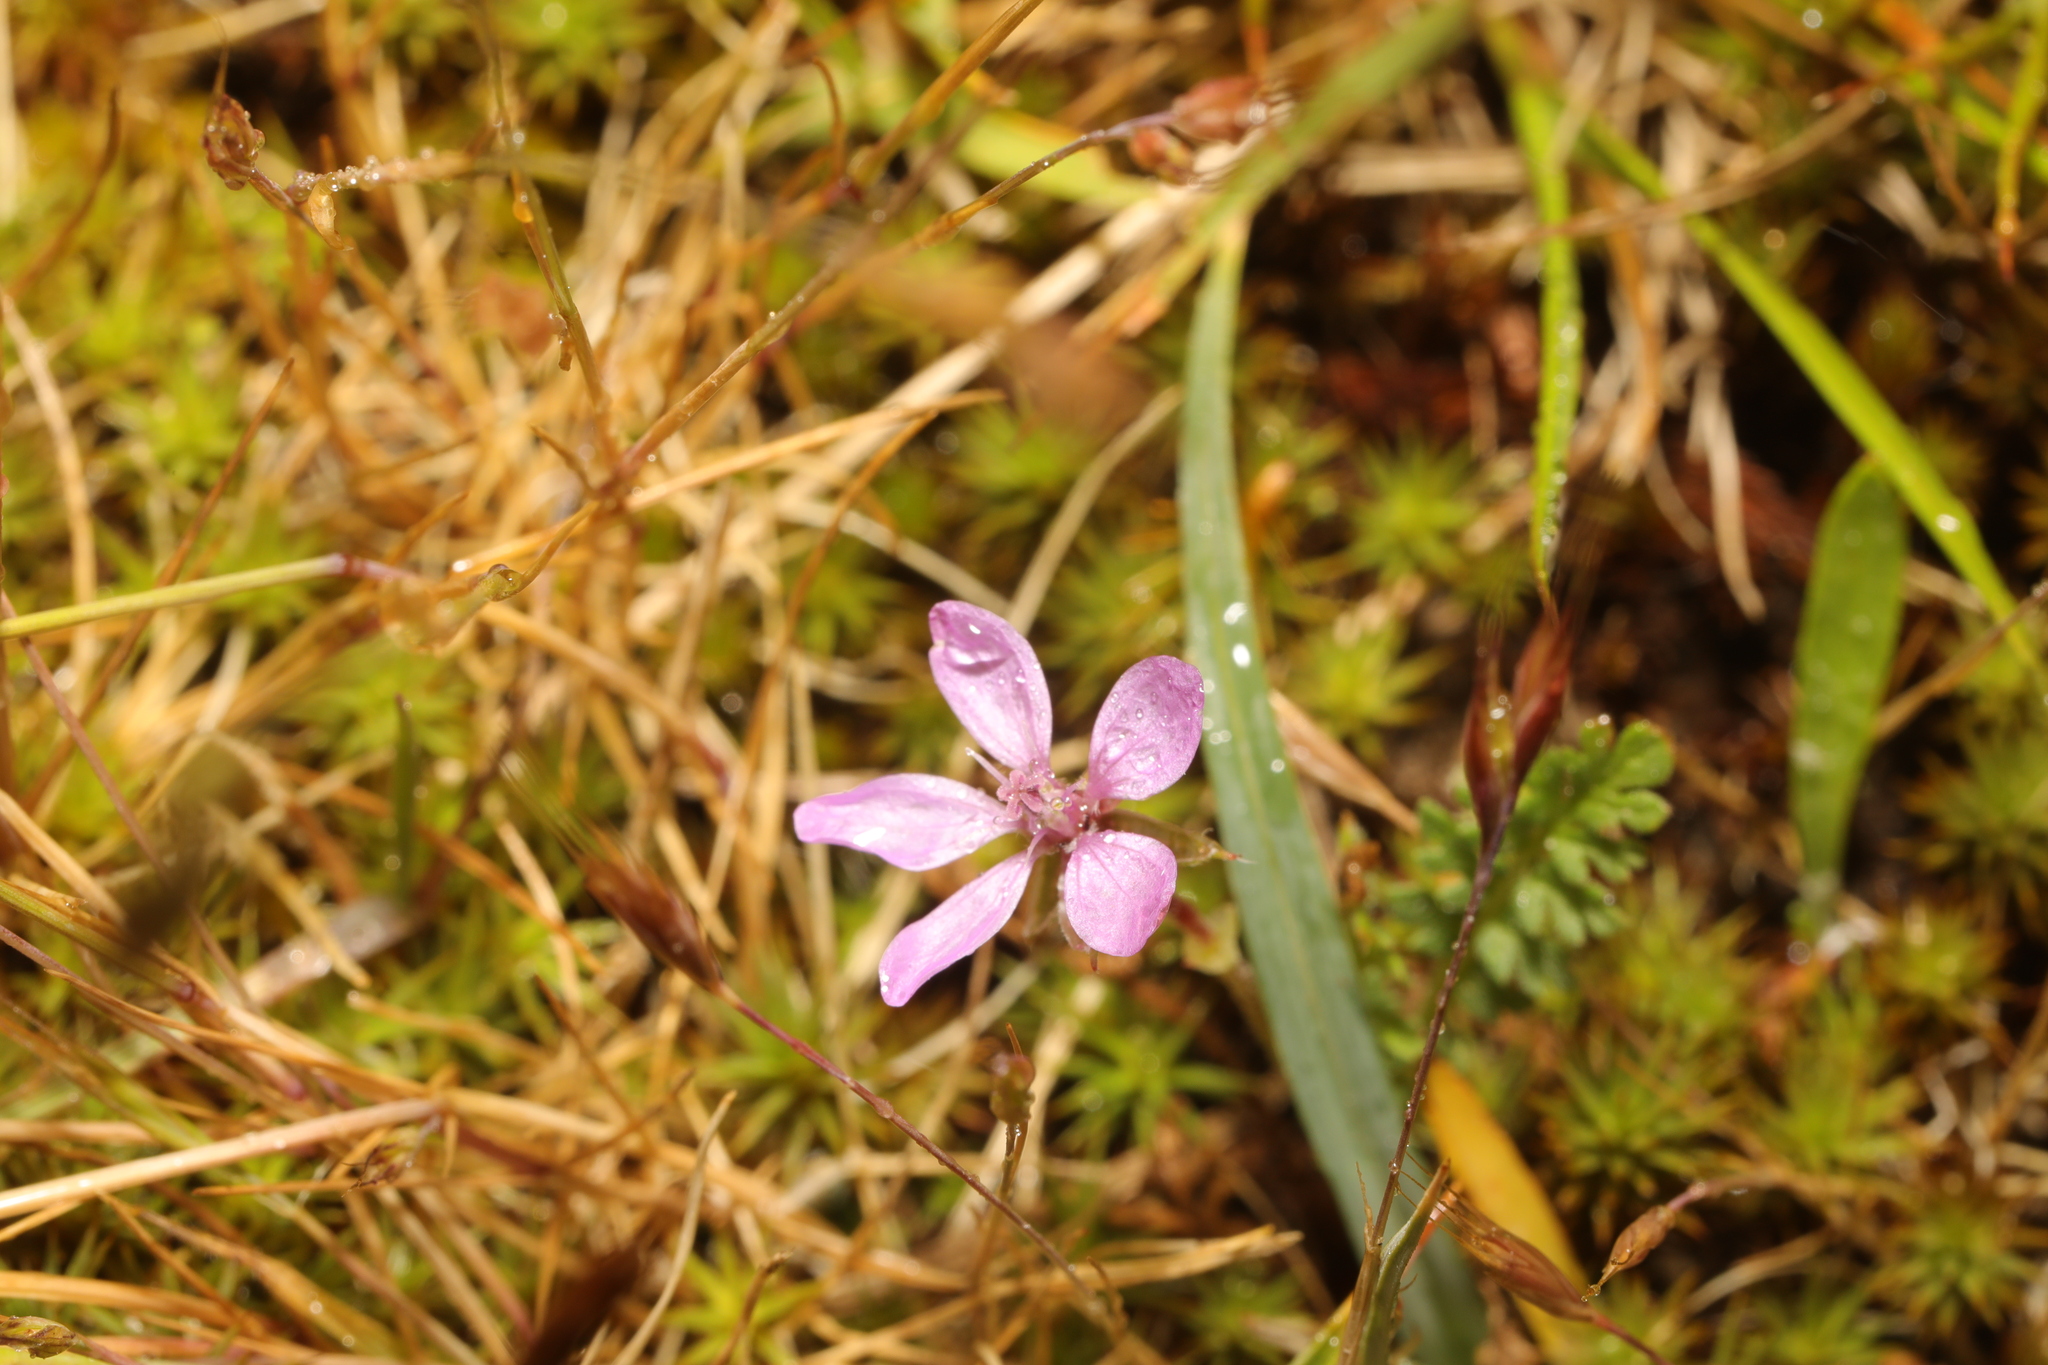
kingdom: Plantae
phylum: Tracheophyta
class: Magnoliopsida
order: Geraniales
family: Geraniaceae
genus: Erodium
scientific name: Erodium cicutarium
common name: Common stork's-bill
